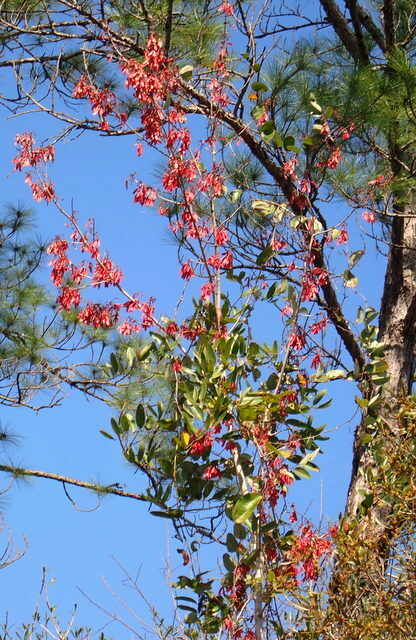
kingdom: Plantae
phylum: Tracheophyta
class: Magnoliopsida
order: Sapindales
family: Sapindaceae
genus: Acer
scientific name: Acer rubrum
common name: Red maple
